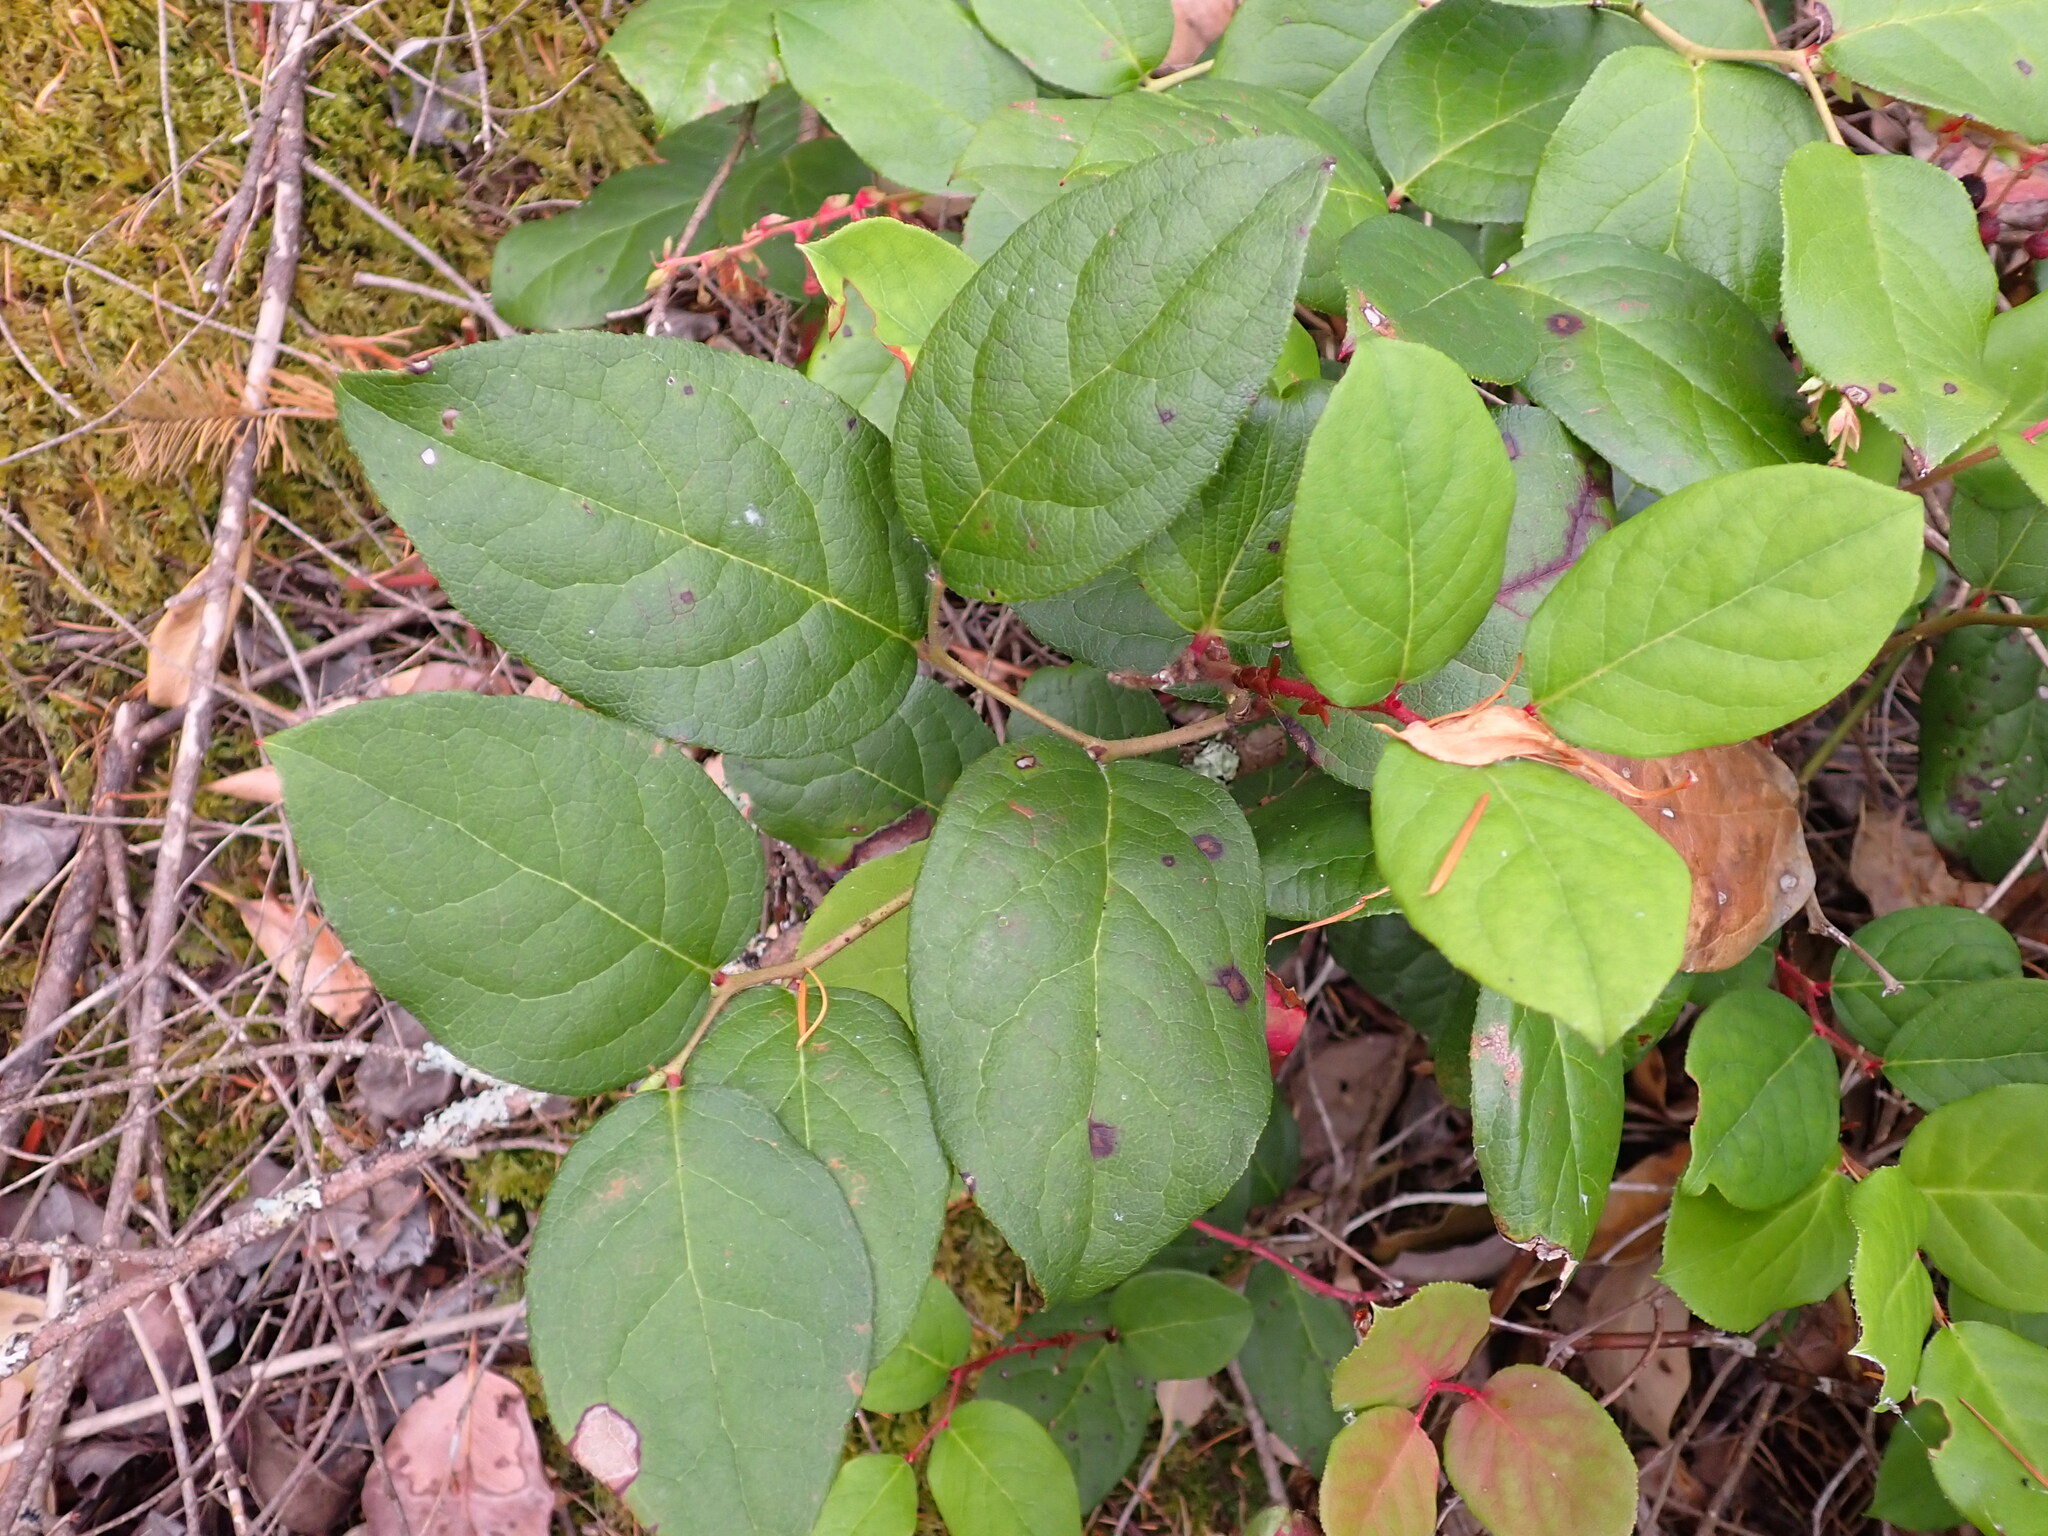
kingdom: Plantae
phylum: Tracheophyta
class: Magnoliopsida
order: Ericales
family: Ericaceae
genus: Gaultheria
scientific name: Gaultheria shallon
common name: Shallon
